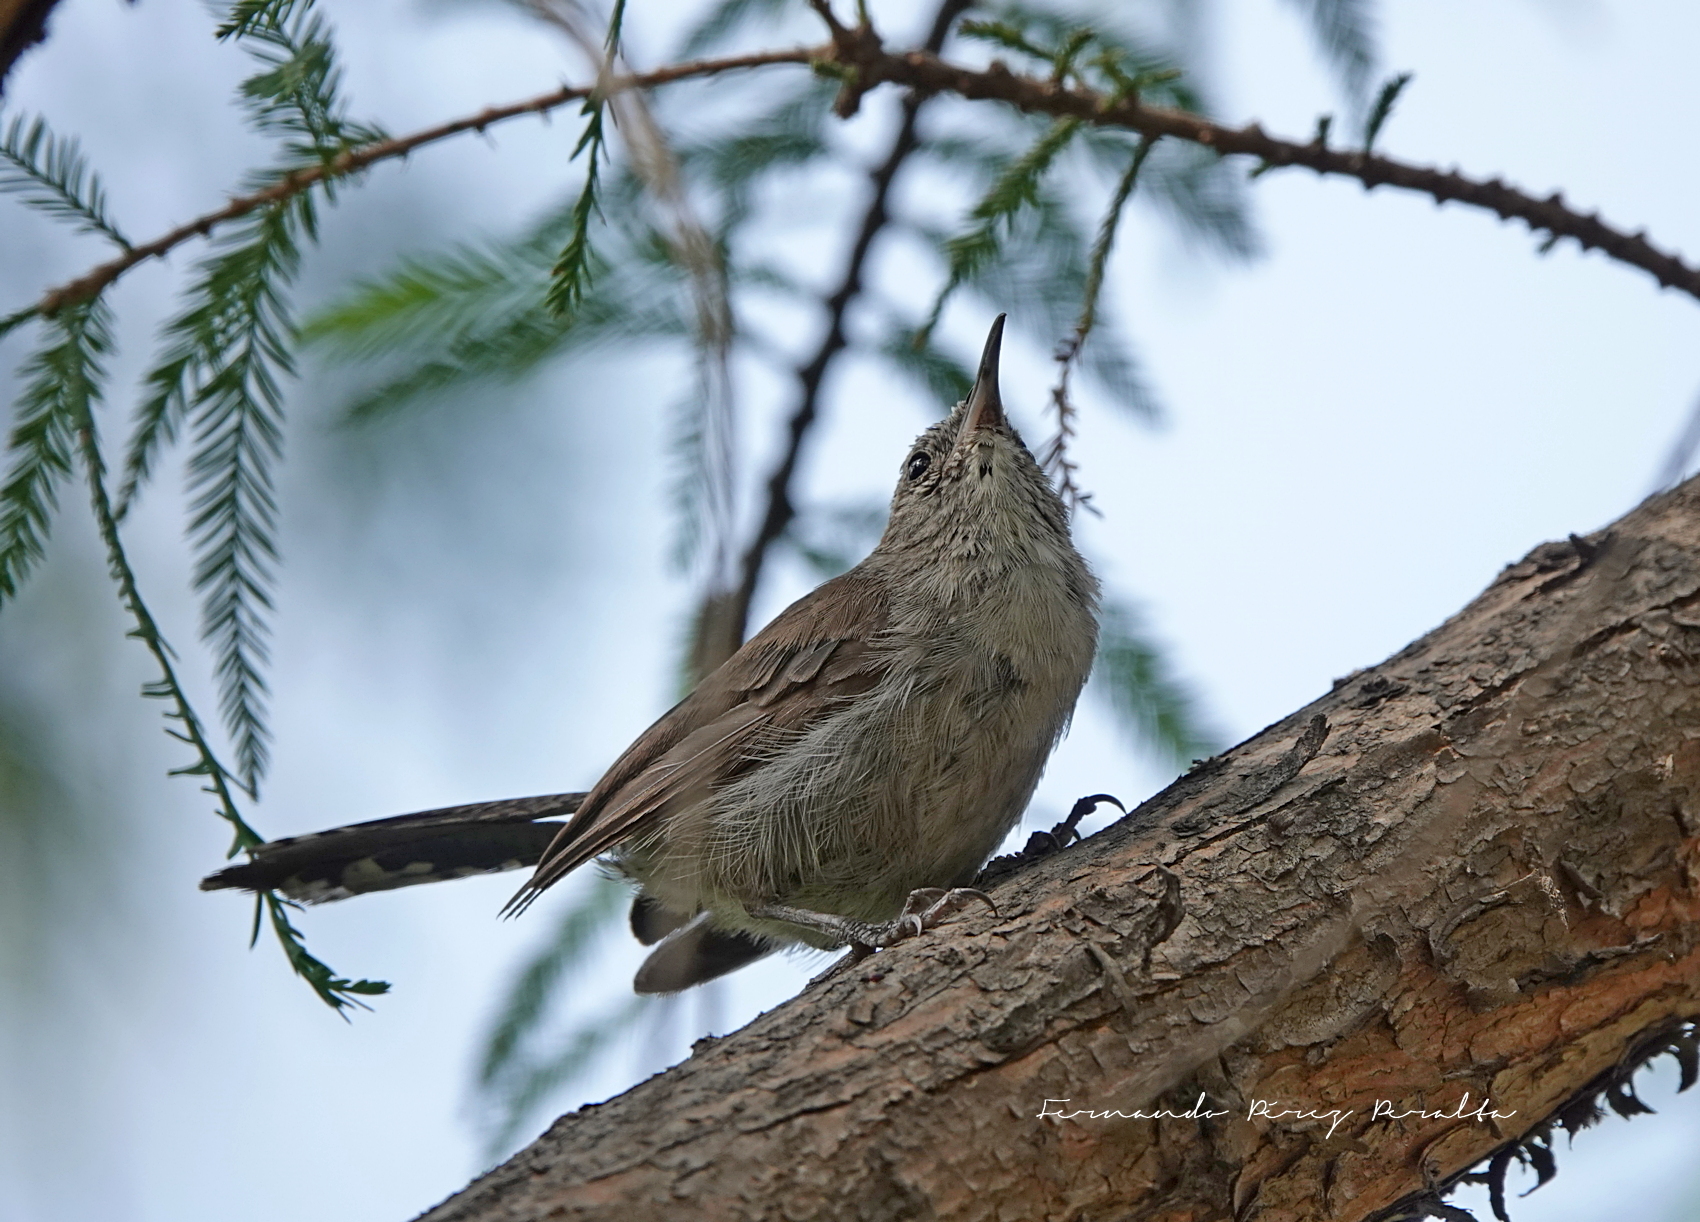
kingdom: Animalia
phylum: Chordata
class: Aves
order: Passeriformes
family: Troglodytidae
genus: Thryomanes
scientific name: Thryomanes bewickii
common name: Bewick's wren
